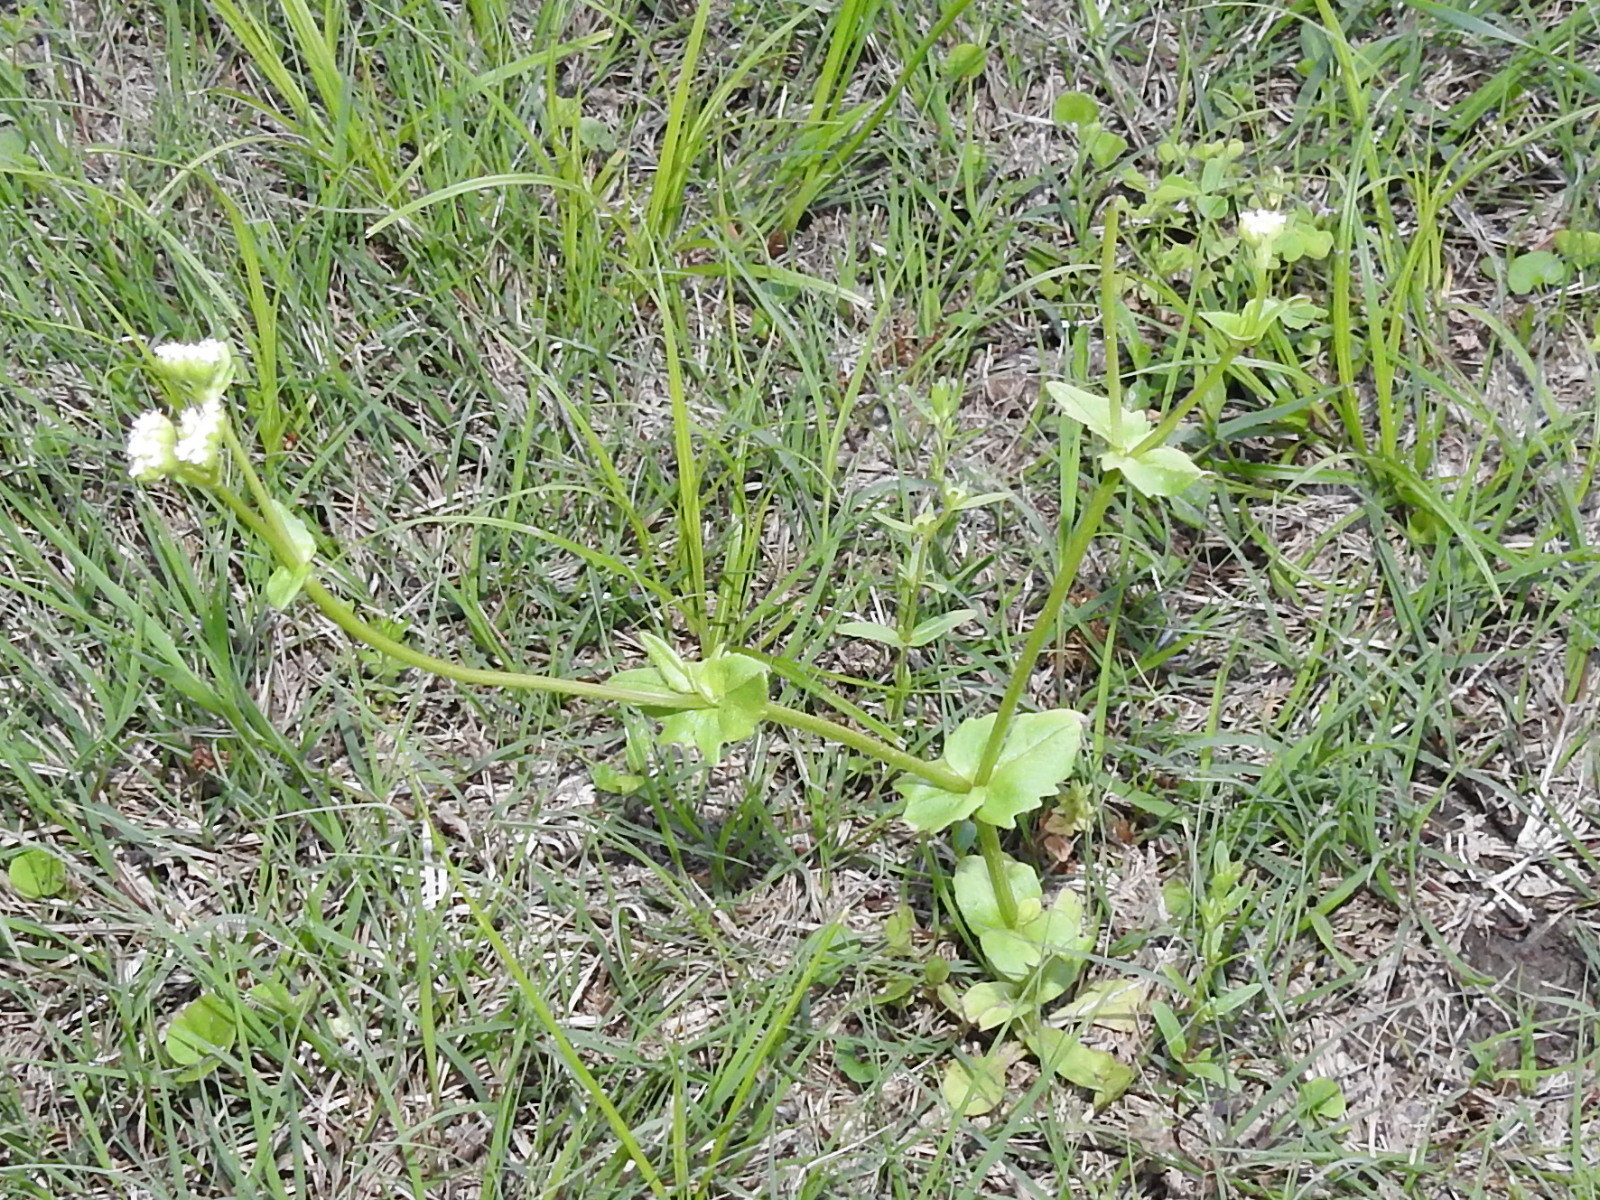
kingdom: Plantae
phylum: Tracheophyta
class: Magnoliopsida
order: Dipsacales
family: Caprifoliaceae
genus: Valerianella
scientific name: Valerianella radiata
